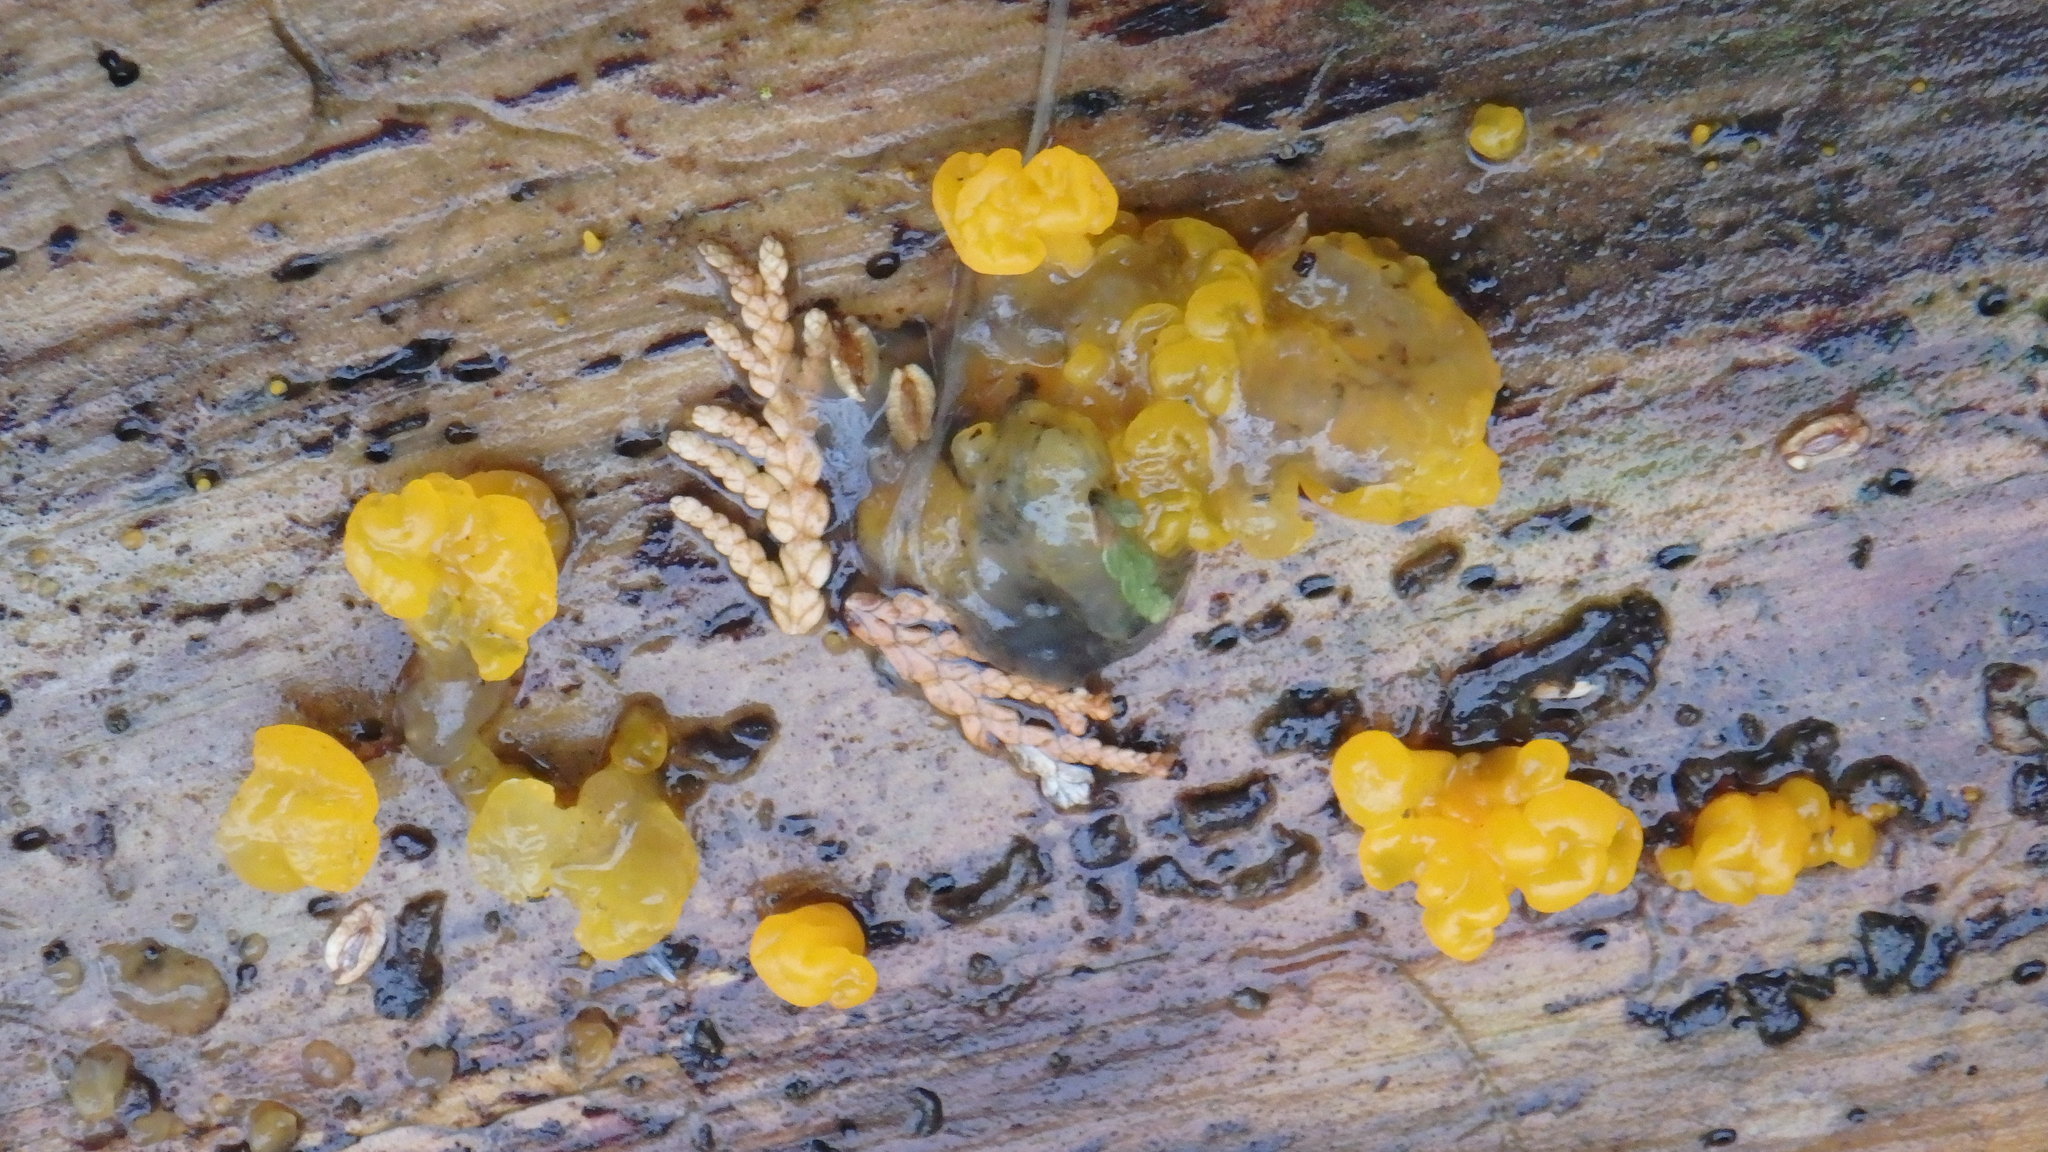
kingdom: Fungi
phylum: Basidiomycota
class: Dacrymycetes
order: Dacrymycetales
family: Dacrymycetaceae
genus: Dacrymyces
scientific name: Dacrymyces chrysospermus
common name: Orange jelly spot
